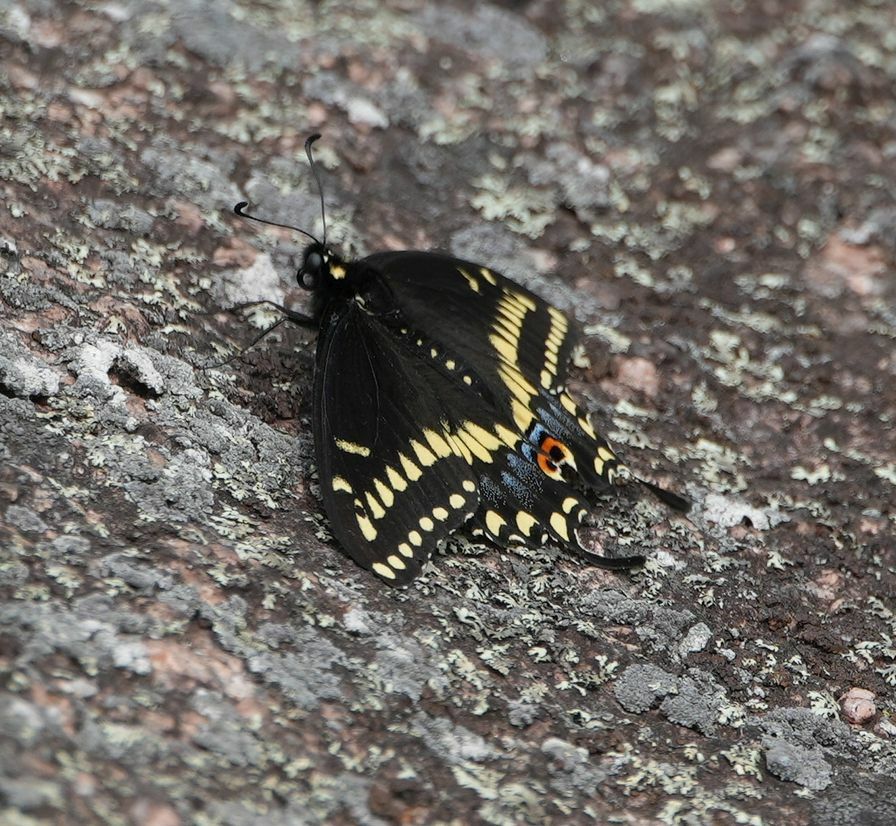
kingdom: Animalia
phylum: Arthropoda
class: Insecta
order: Lepidoptera
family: Papilionidae
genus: Papilio
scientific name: Papilio polyxenes
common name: Black swallowtail
